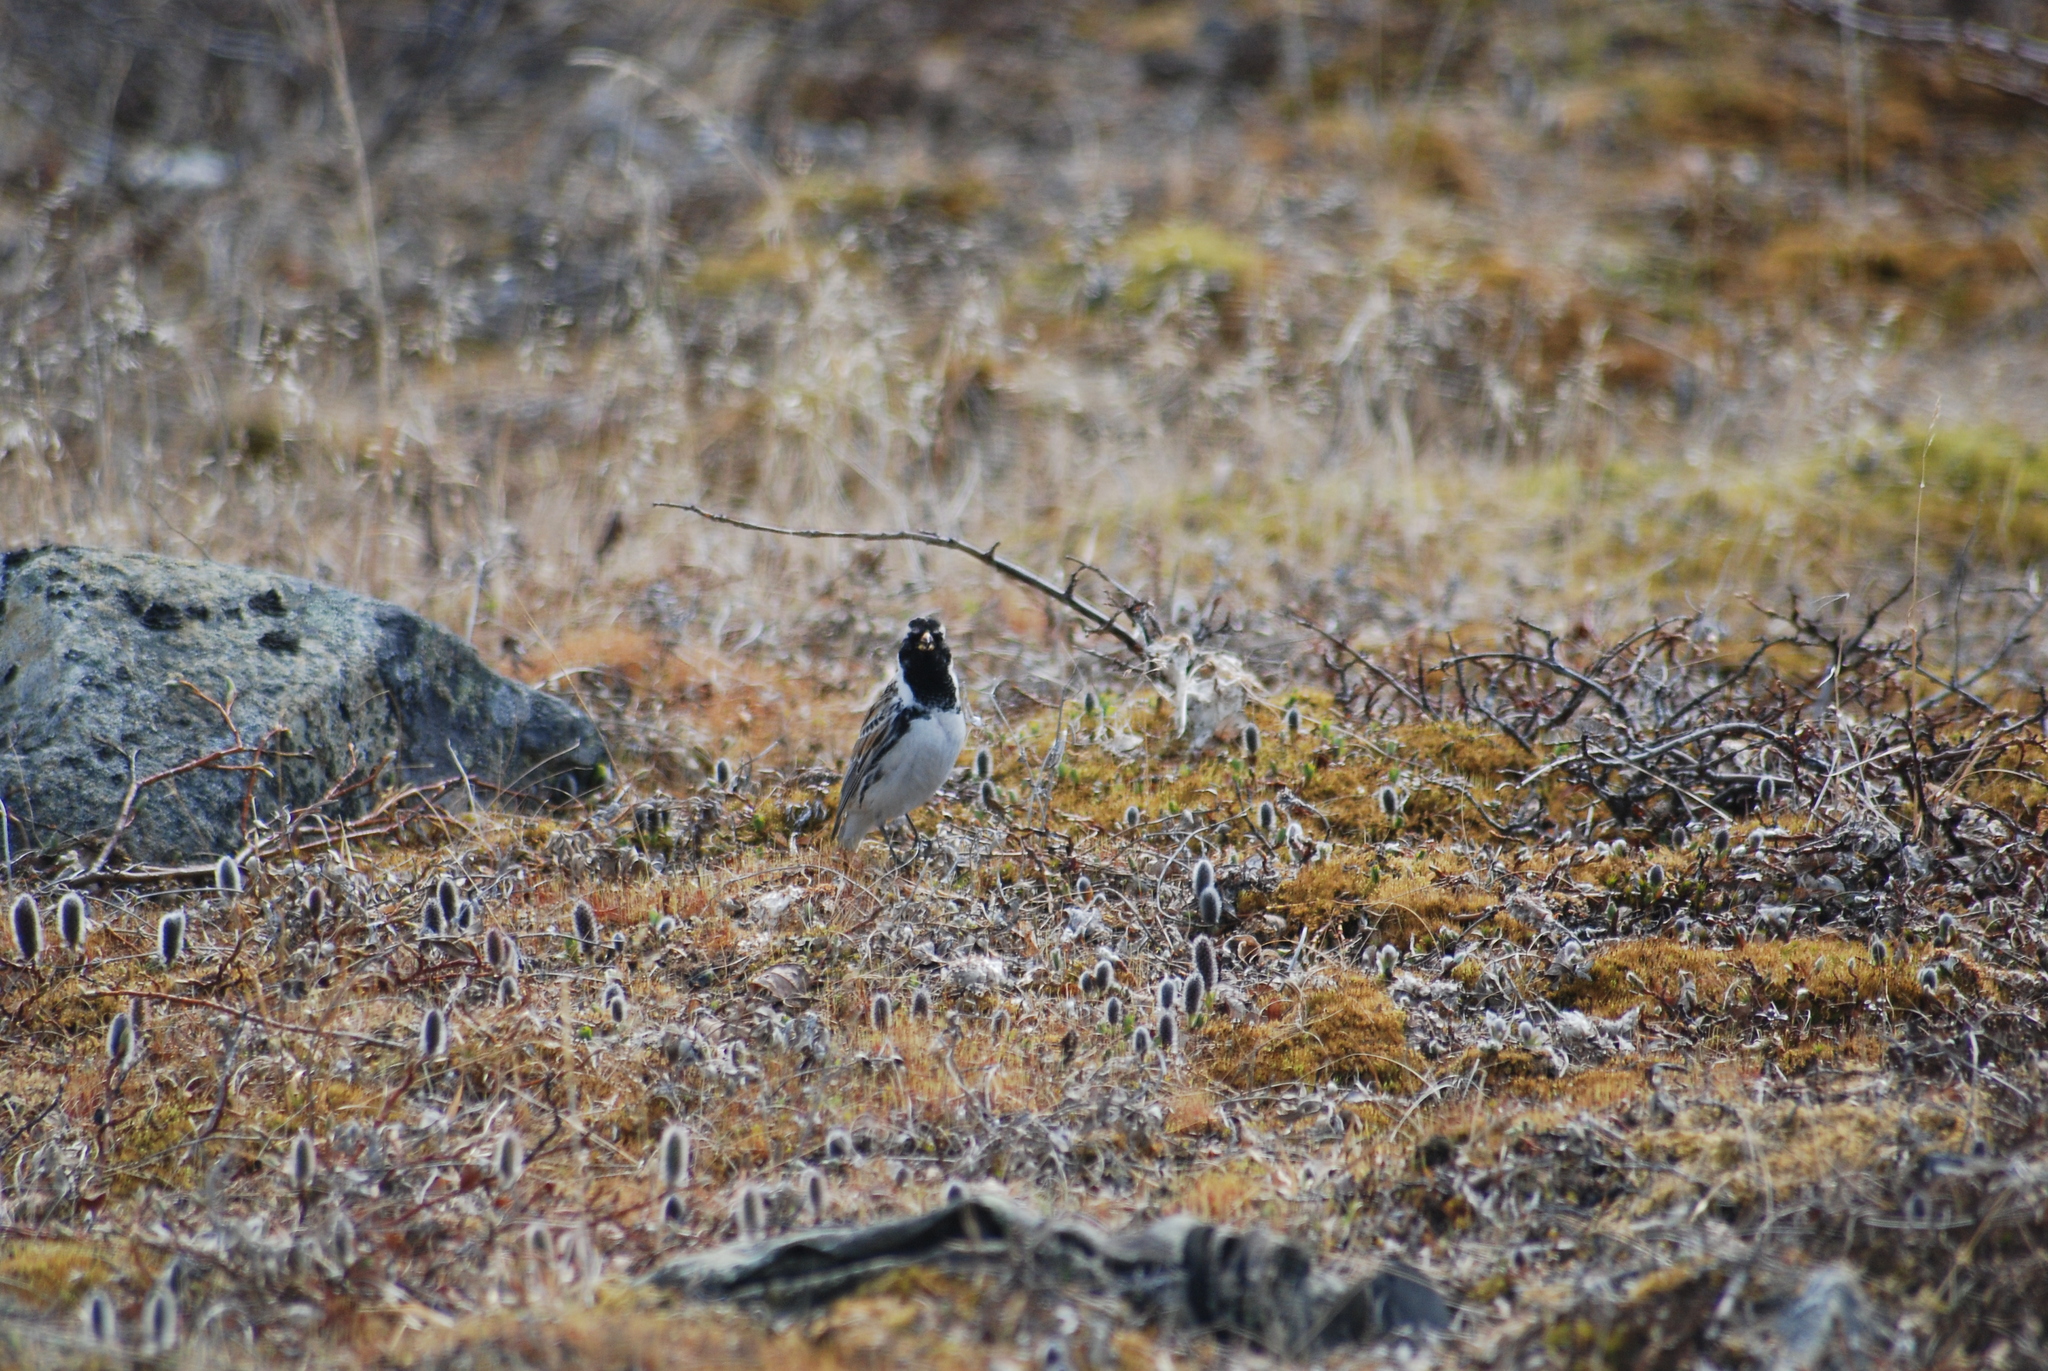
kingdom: Animalia
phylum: Chordata
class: Aves
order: Passeriformes
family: Calcariidae
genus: Calcarius
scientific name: Calcarius lapponicus
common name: Lapland longspur
